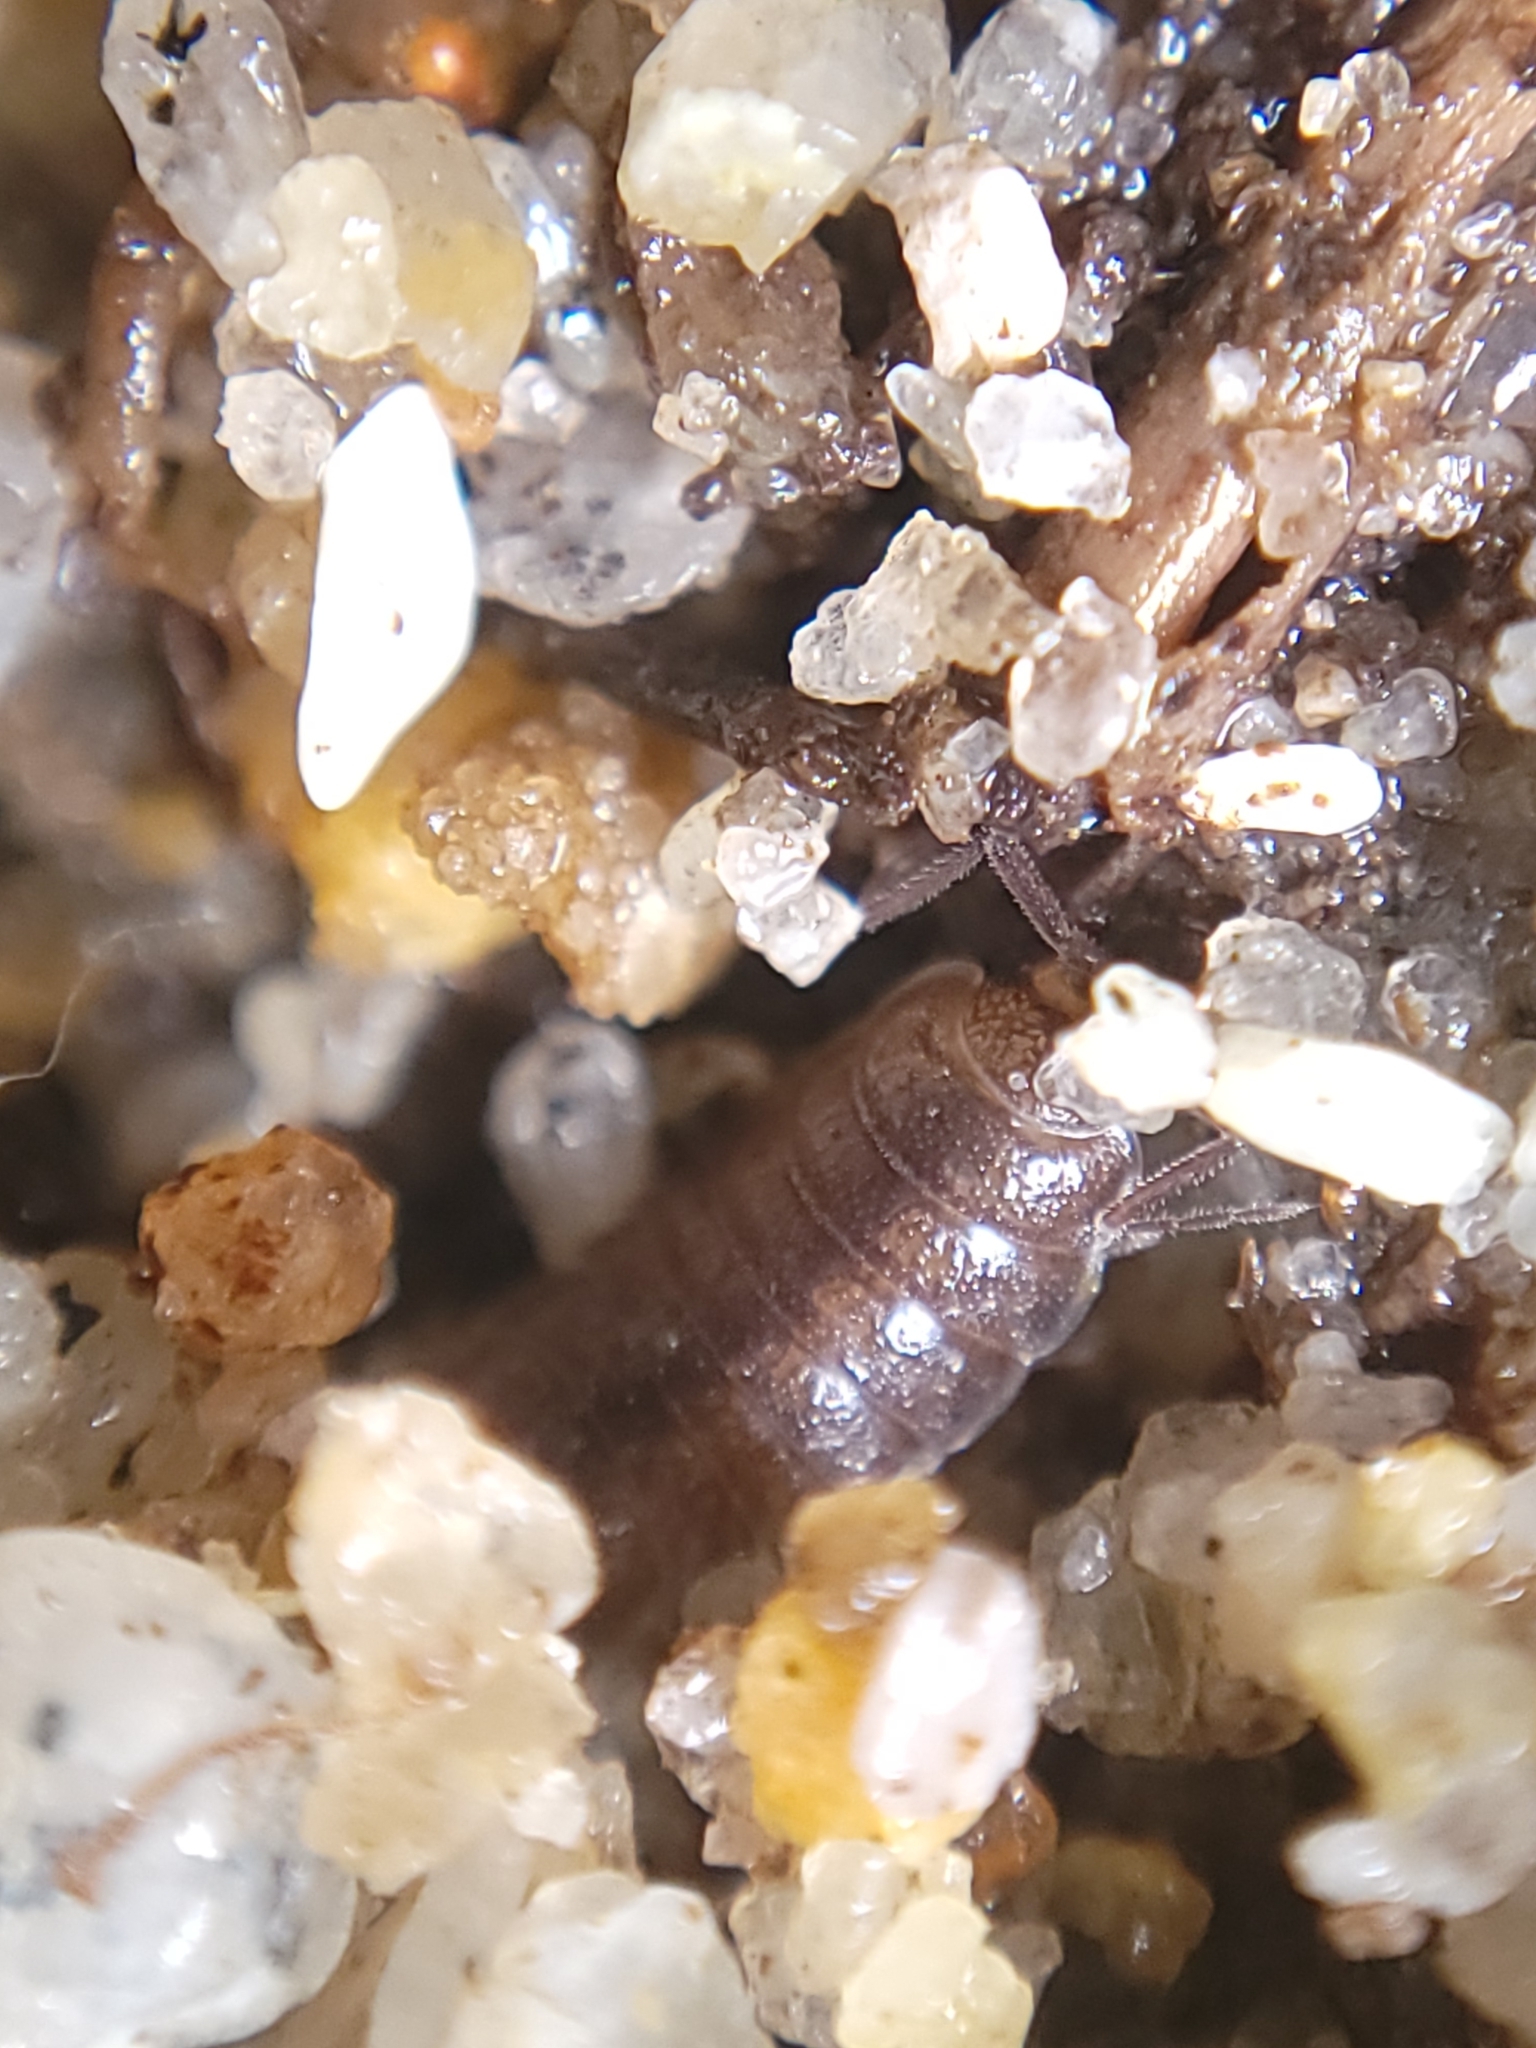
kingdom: Animalia
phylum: Arthropoda
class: Malacostraca
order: Isopoda
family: Halophilosciidae
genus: Littorophiloscia
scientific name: Littorophiloscia richardsonae
